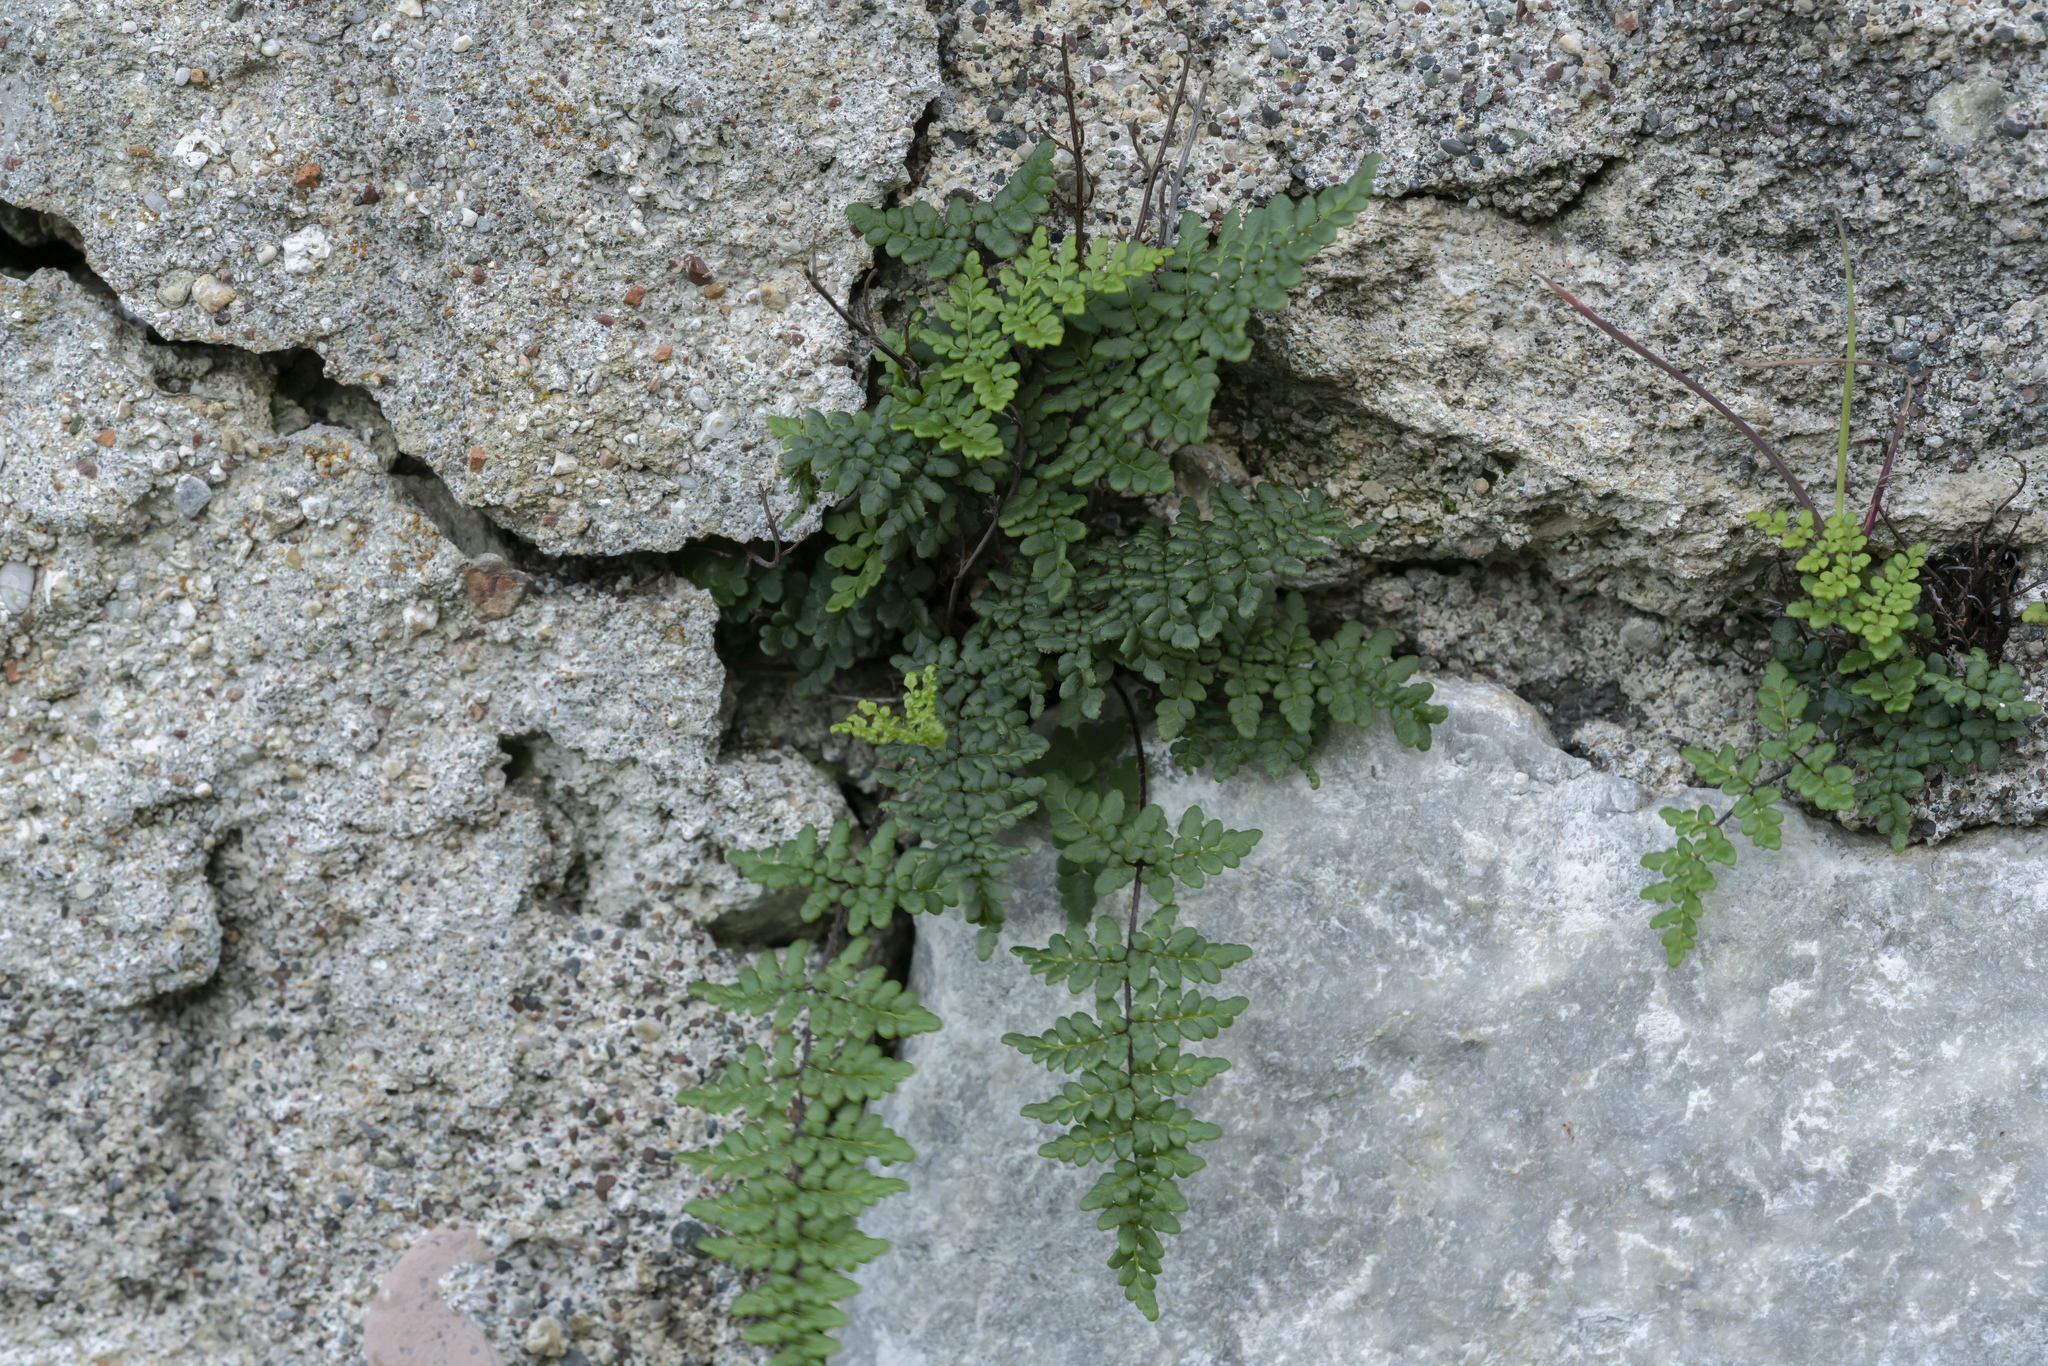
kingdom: Plantae
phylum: Tracheophyta
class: Polypodiopsida
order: Polypodiales
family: Pteridaceae
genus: Oeosporangium
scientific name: Oeosporangium pteridioides
